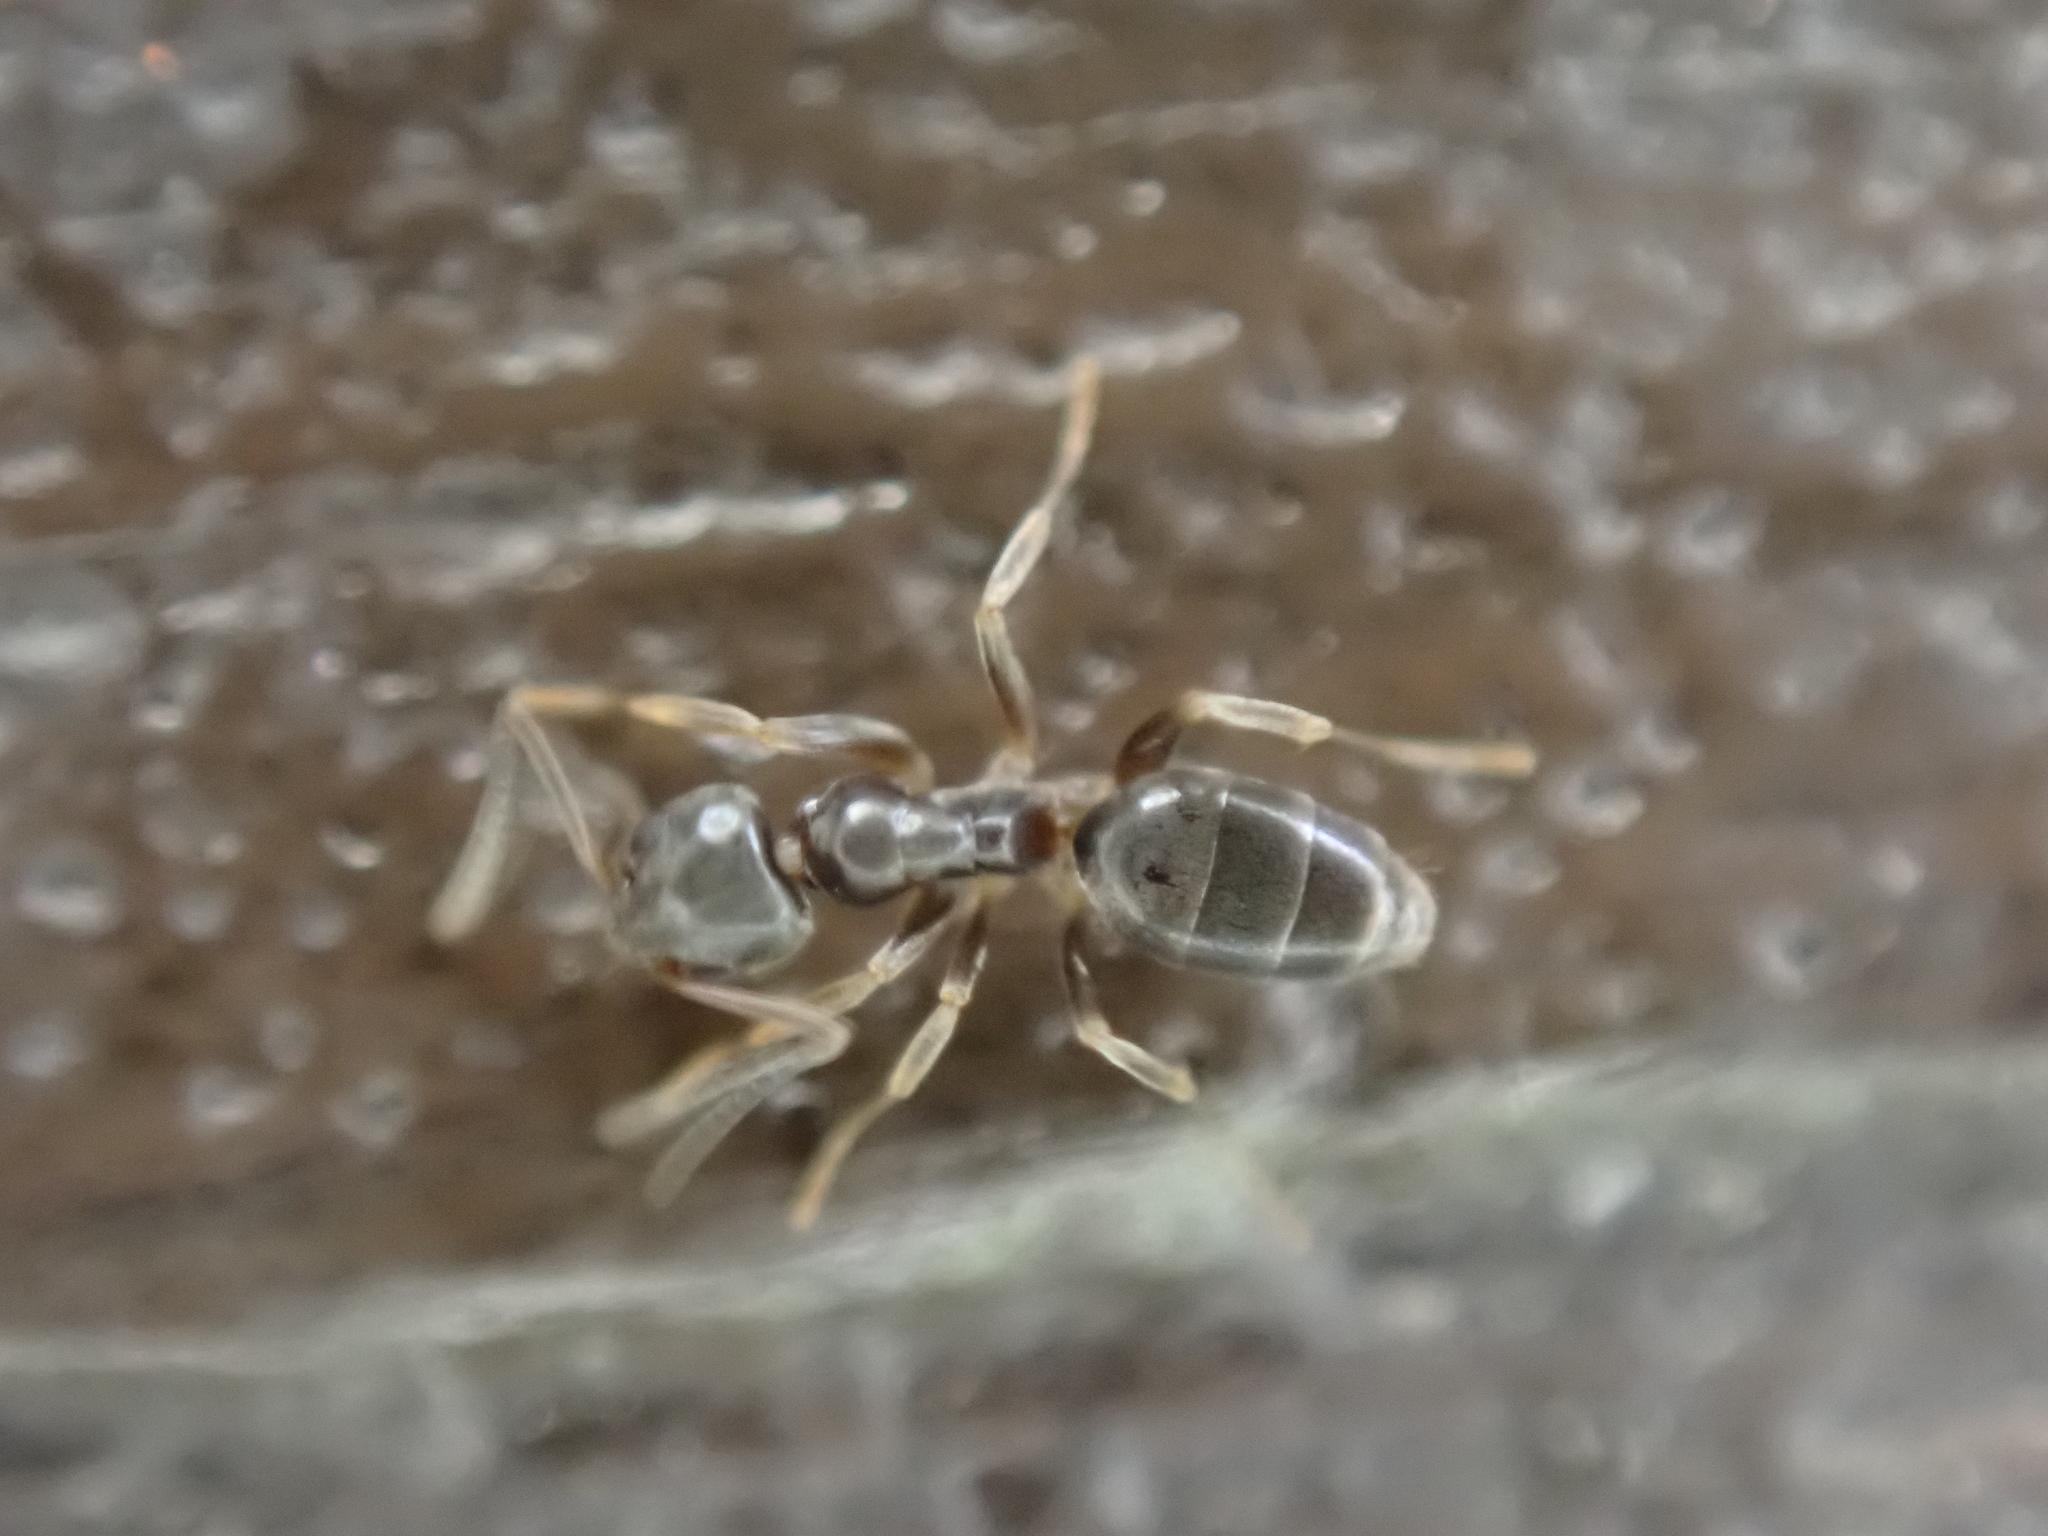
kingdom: Animalia
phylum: Arthropoda
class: Insecta
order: Hymenoptera
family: Formicidae
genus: Tapinoma
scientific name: Tapinoma sessile
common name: Odorous house ant
